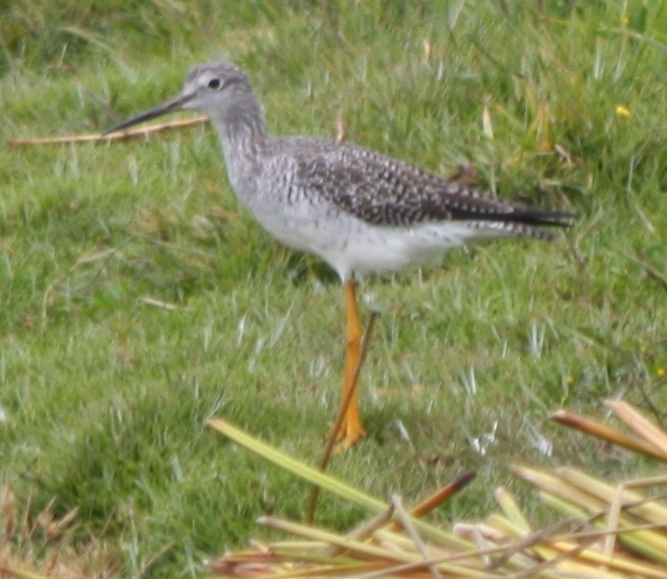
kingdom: Animalia
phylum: Chordata
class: Aves
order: Charadriiformes
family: Scolopacidae
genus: Tringa
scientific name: Tringa melanoleuca
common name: Greater yellowlegs
